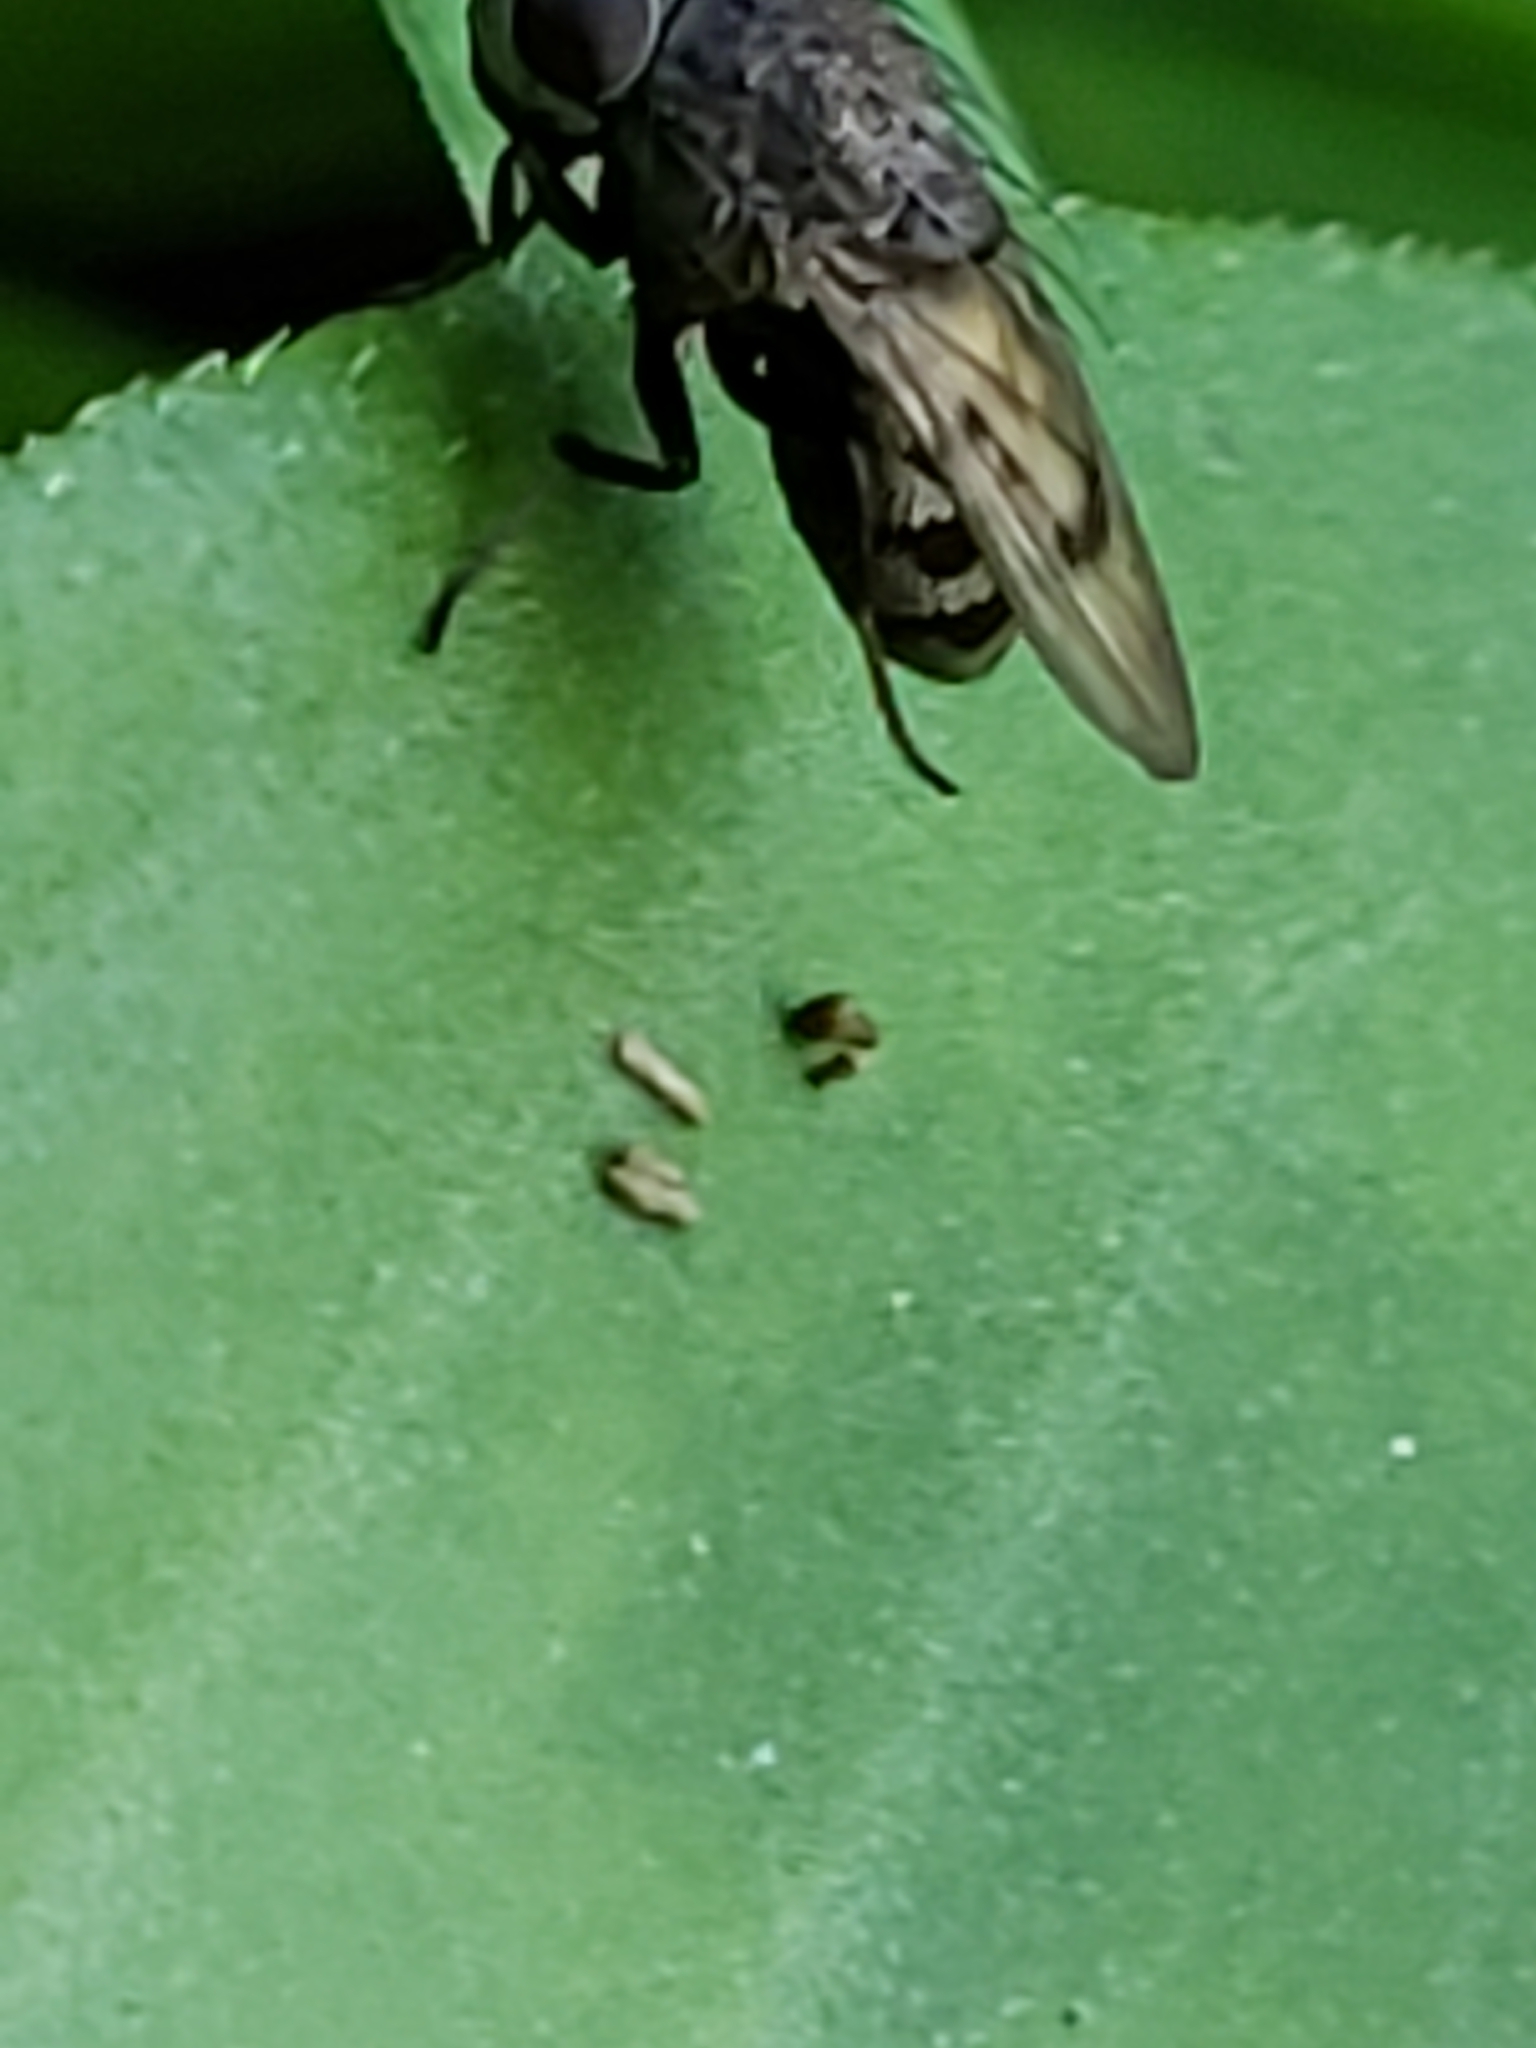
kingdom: Animalia
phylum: Arthropoda
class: Insecta
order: Diptera
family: Ephydridae
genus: Paralimna
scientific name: Paralimna punctipennis
